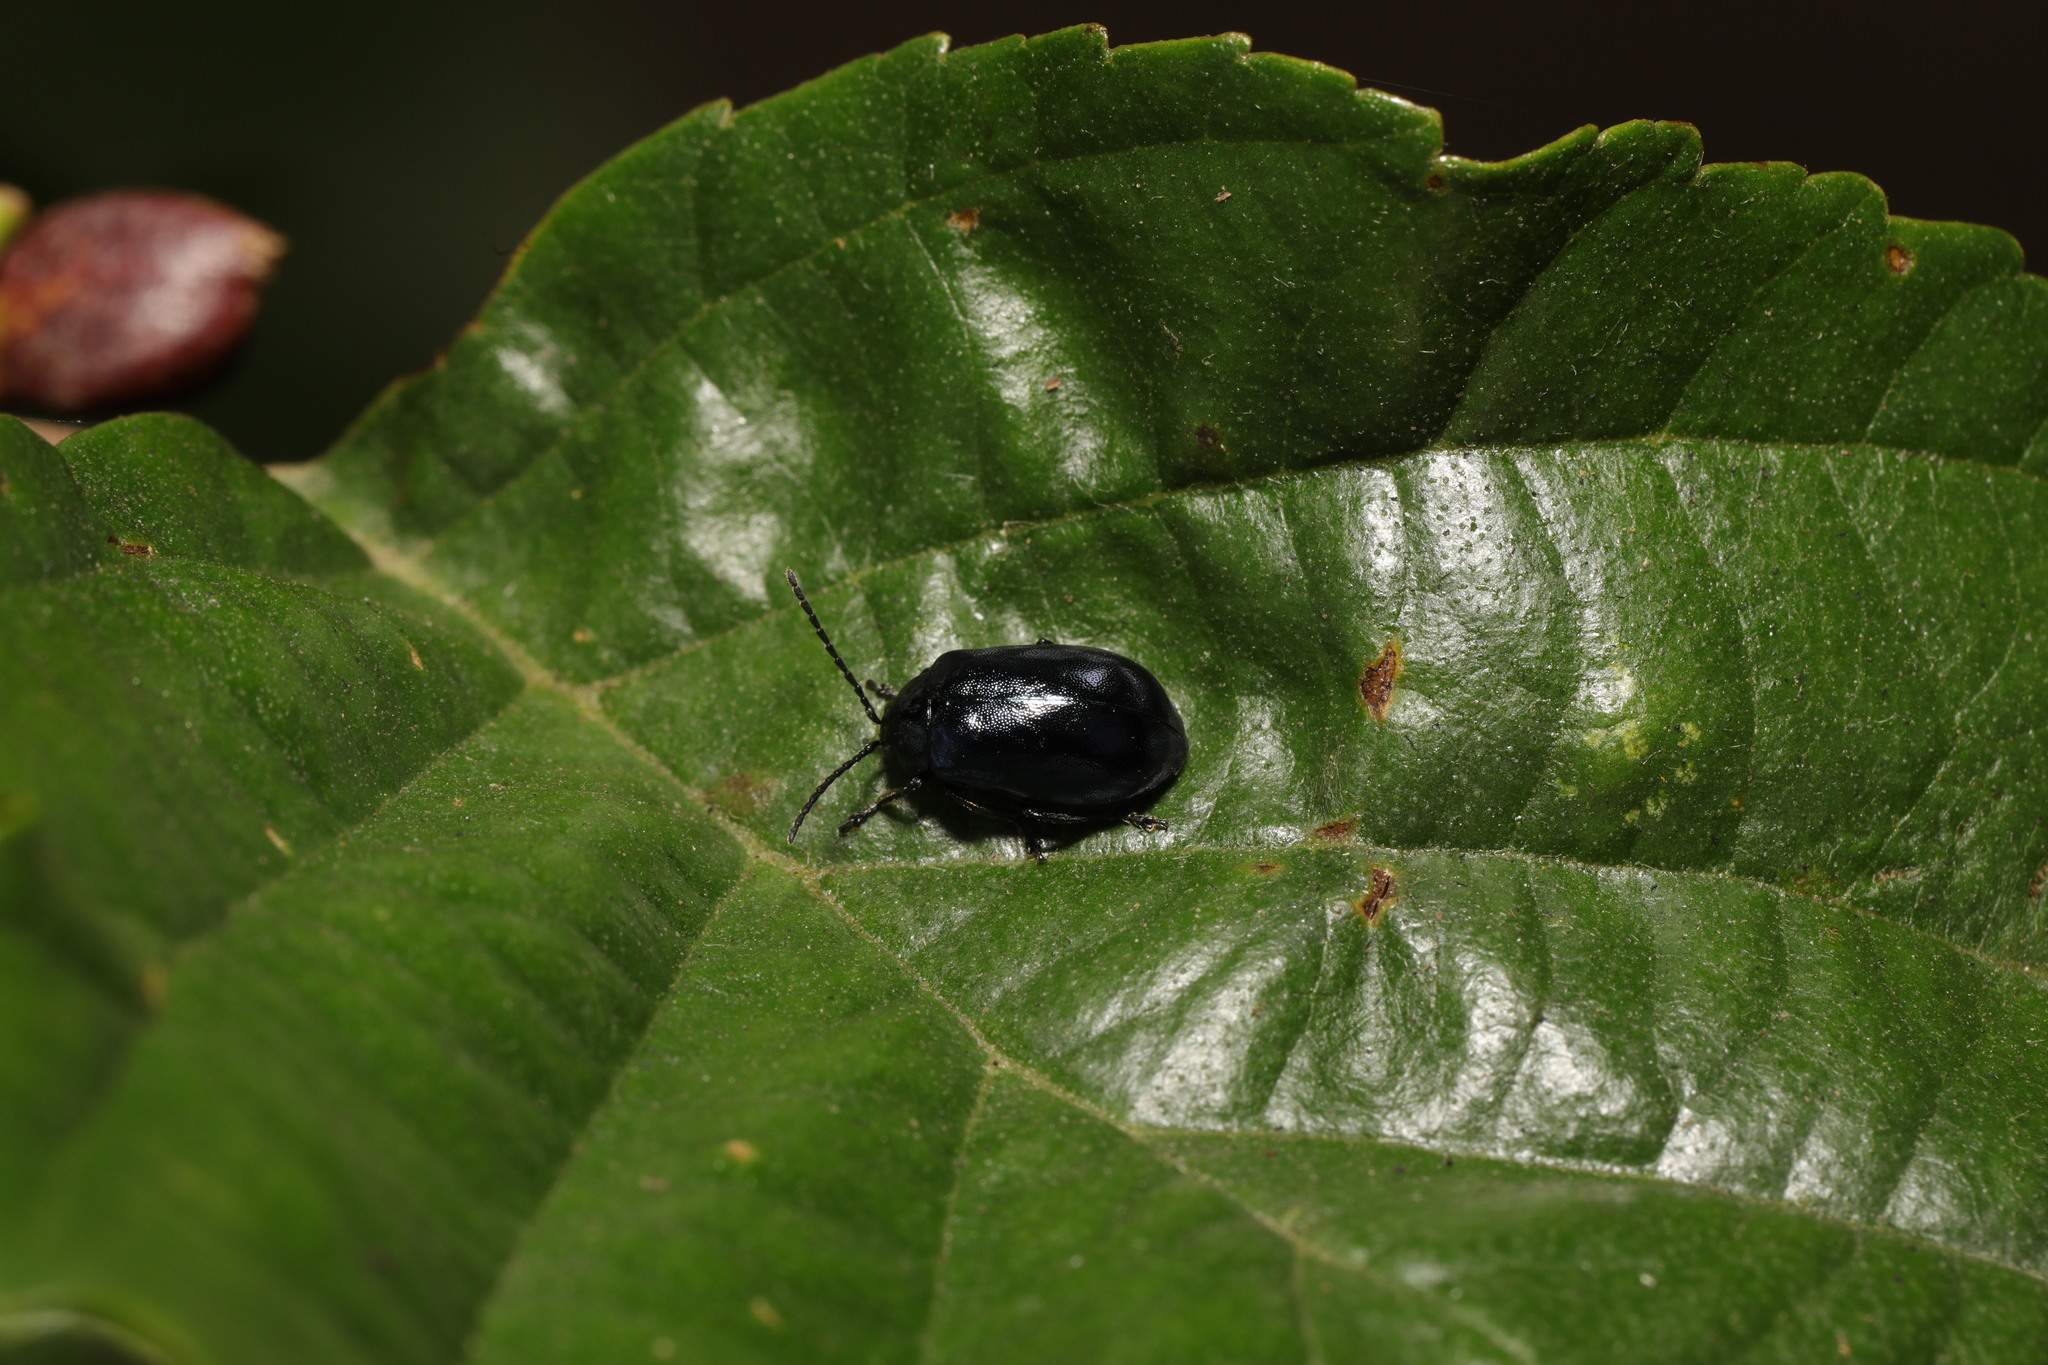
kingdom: Animalia
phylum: Arthropoda
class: Insecta
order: Coleoptera
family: Chrysomelidae
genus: Agelastica
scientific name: Agelastica alni
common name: Alder leaf beetle
